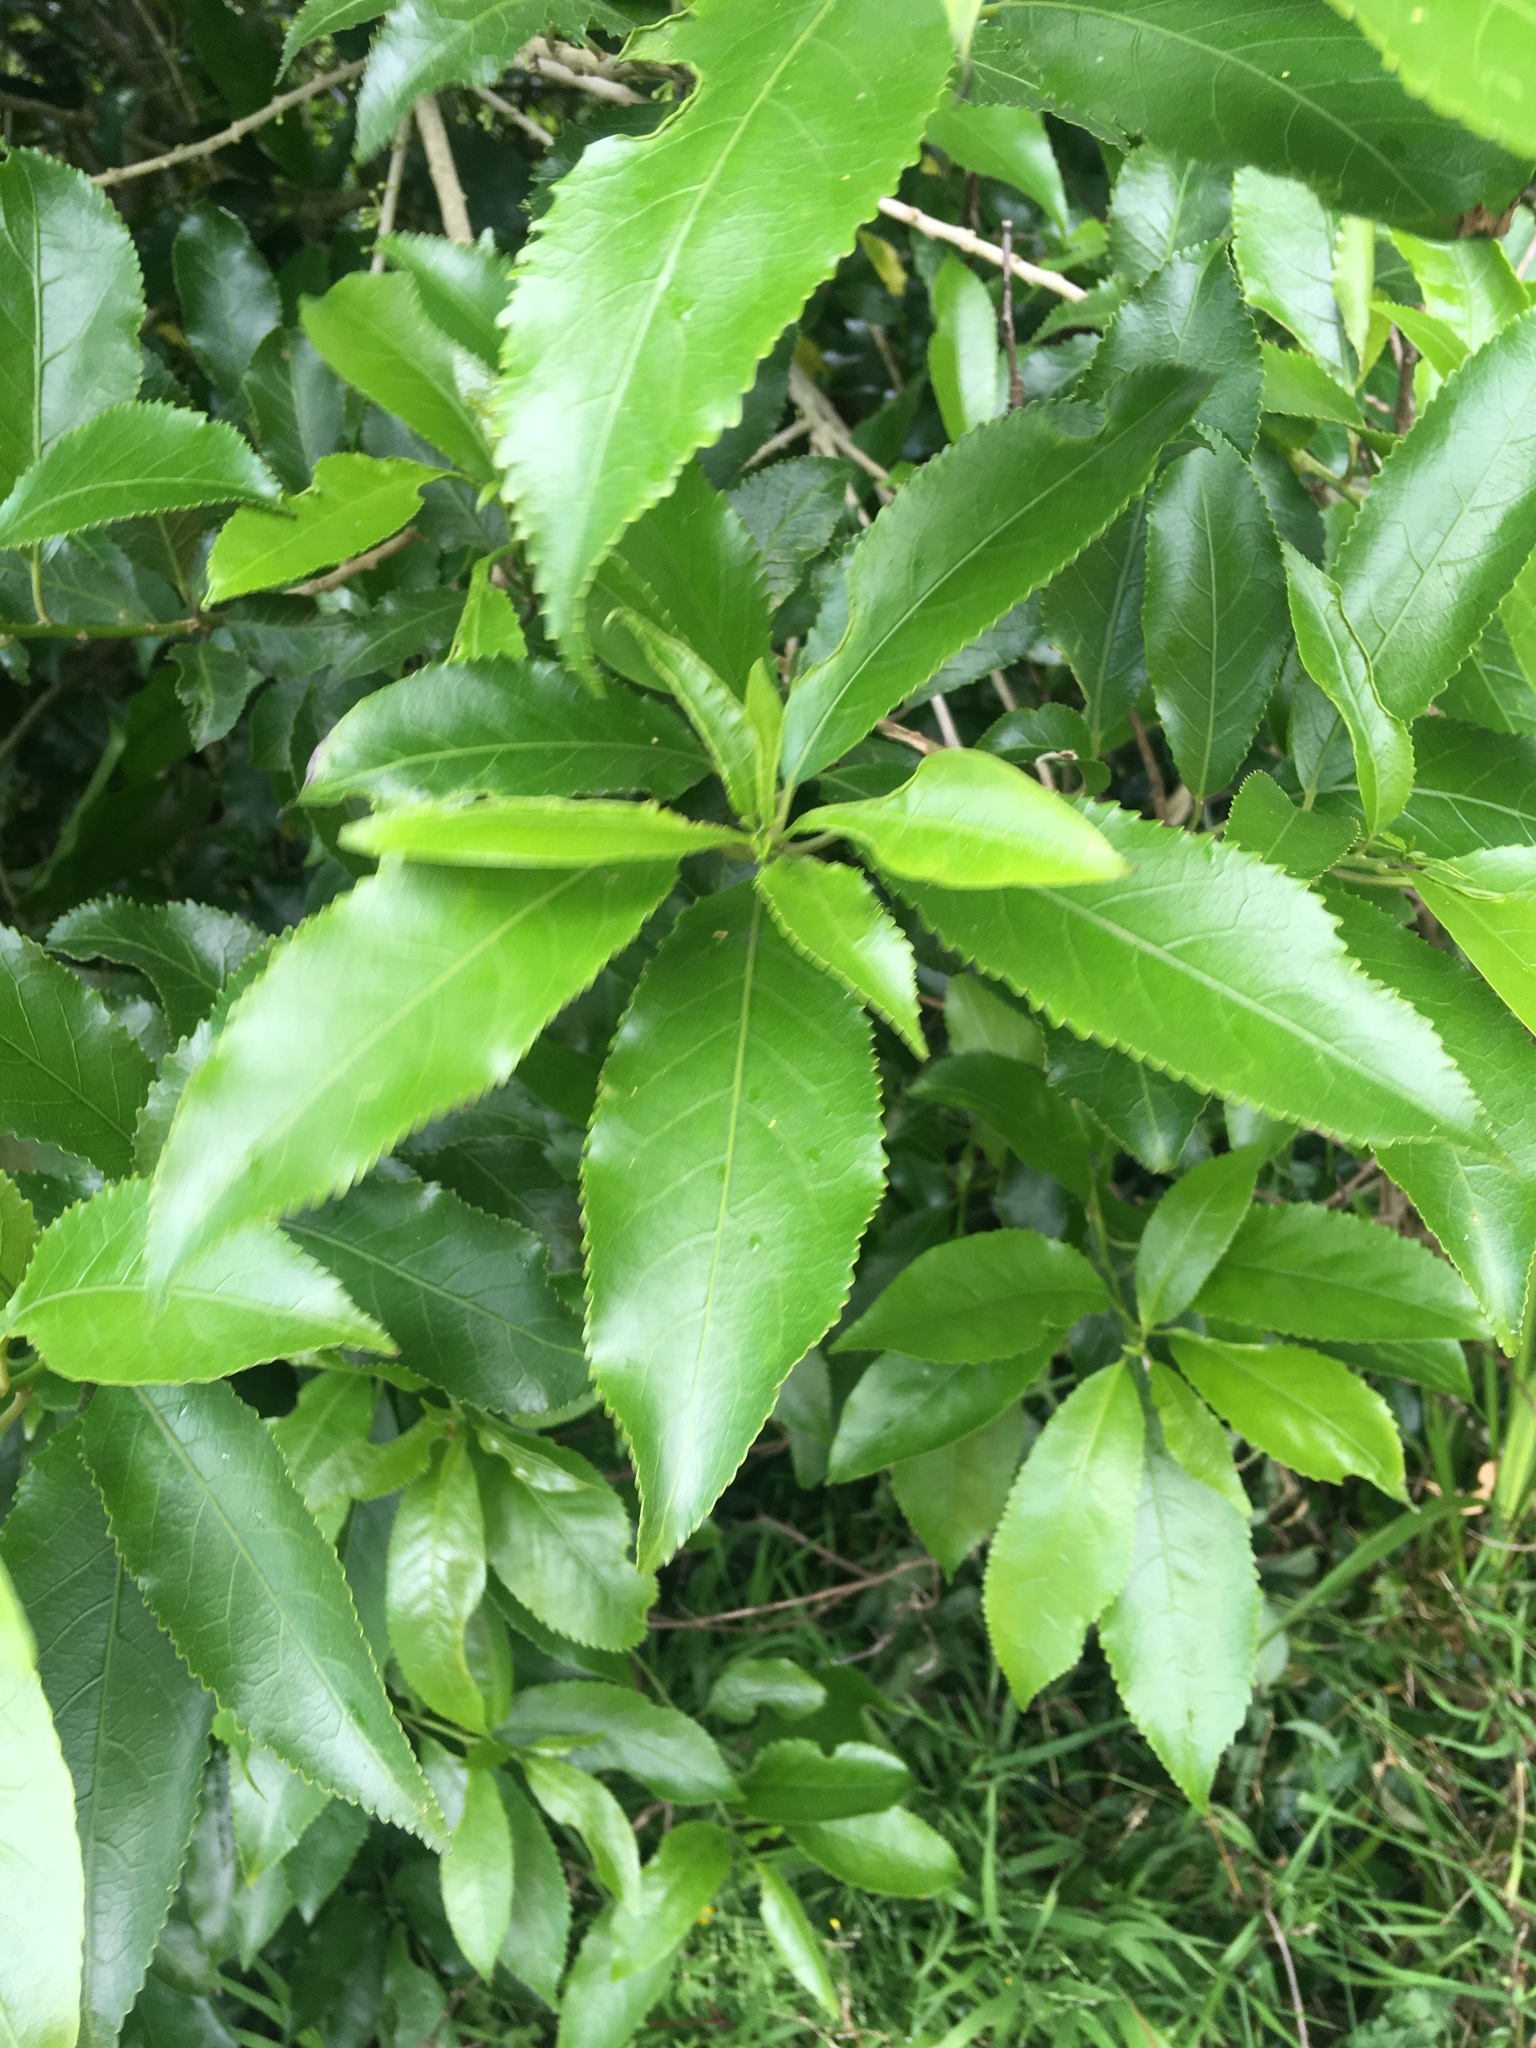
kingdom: Plantae
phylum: Tracheophyta
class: Magnoliopsida
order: Malpighiales
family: Violaceae
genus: Melicytus
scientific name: Melicytus ramiflorus
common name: Mahoe
